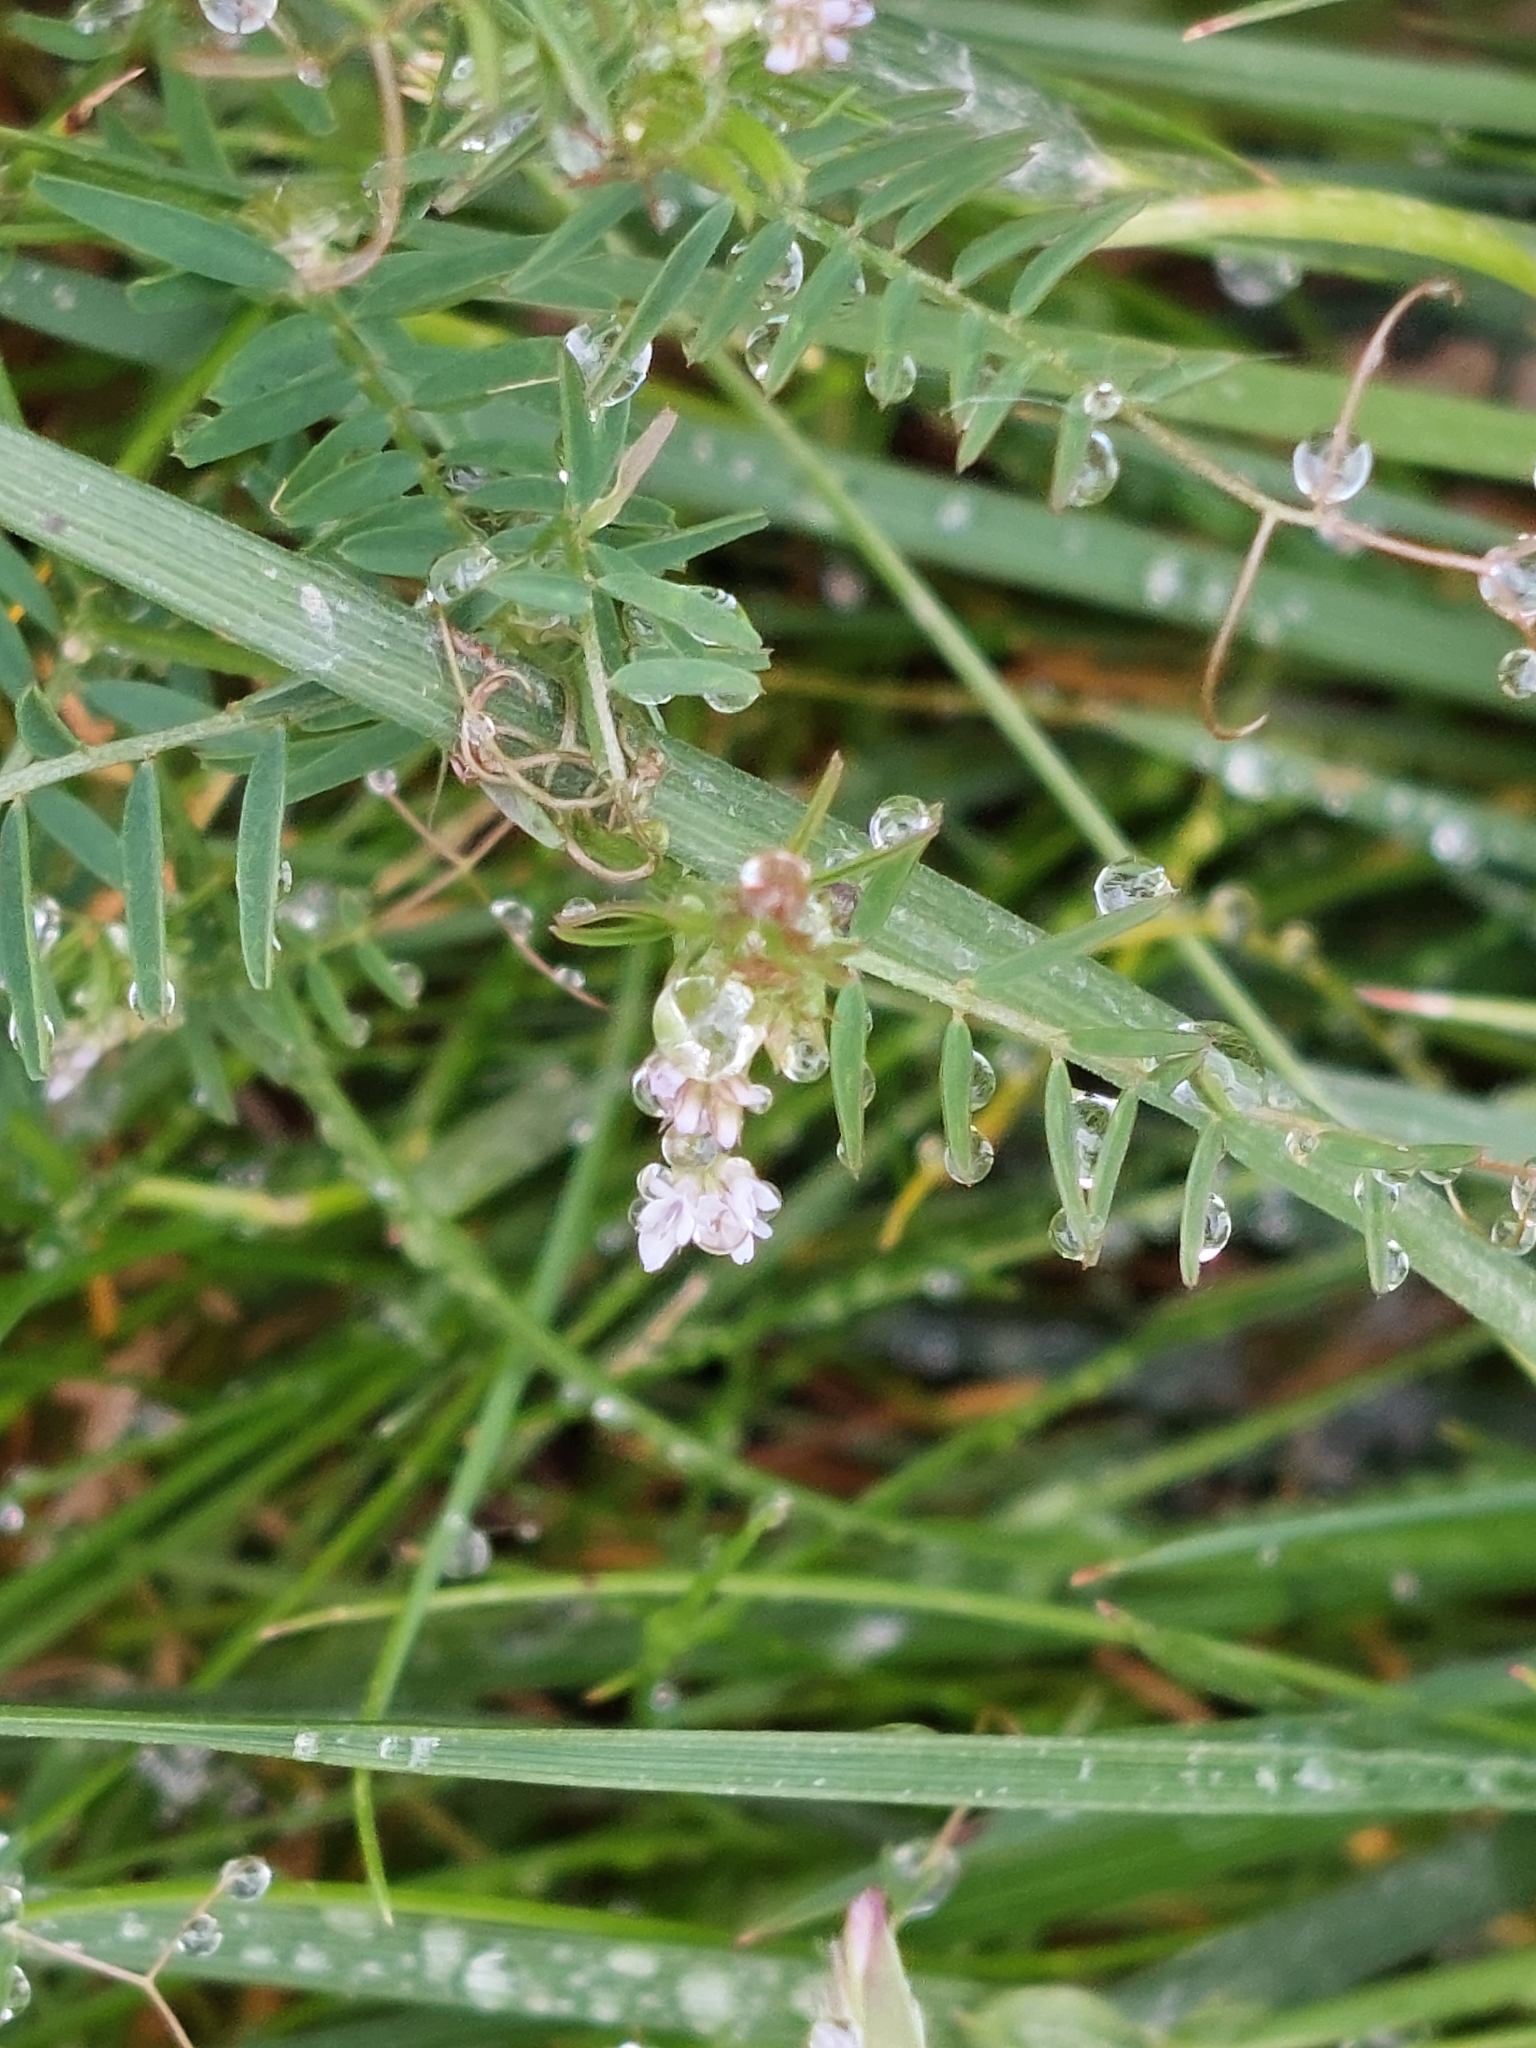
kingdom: Plantae
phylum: Tracheophyta
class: Magnoliopsida
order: Fabales
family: Fabaceae
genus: Vicia
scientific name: Vicia hirsuta
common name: Tiny vetch
